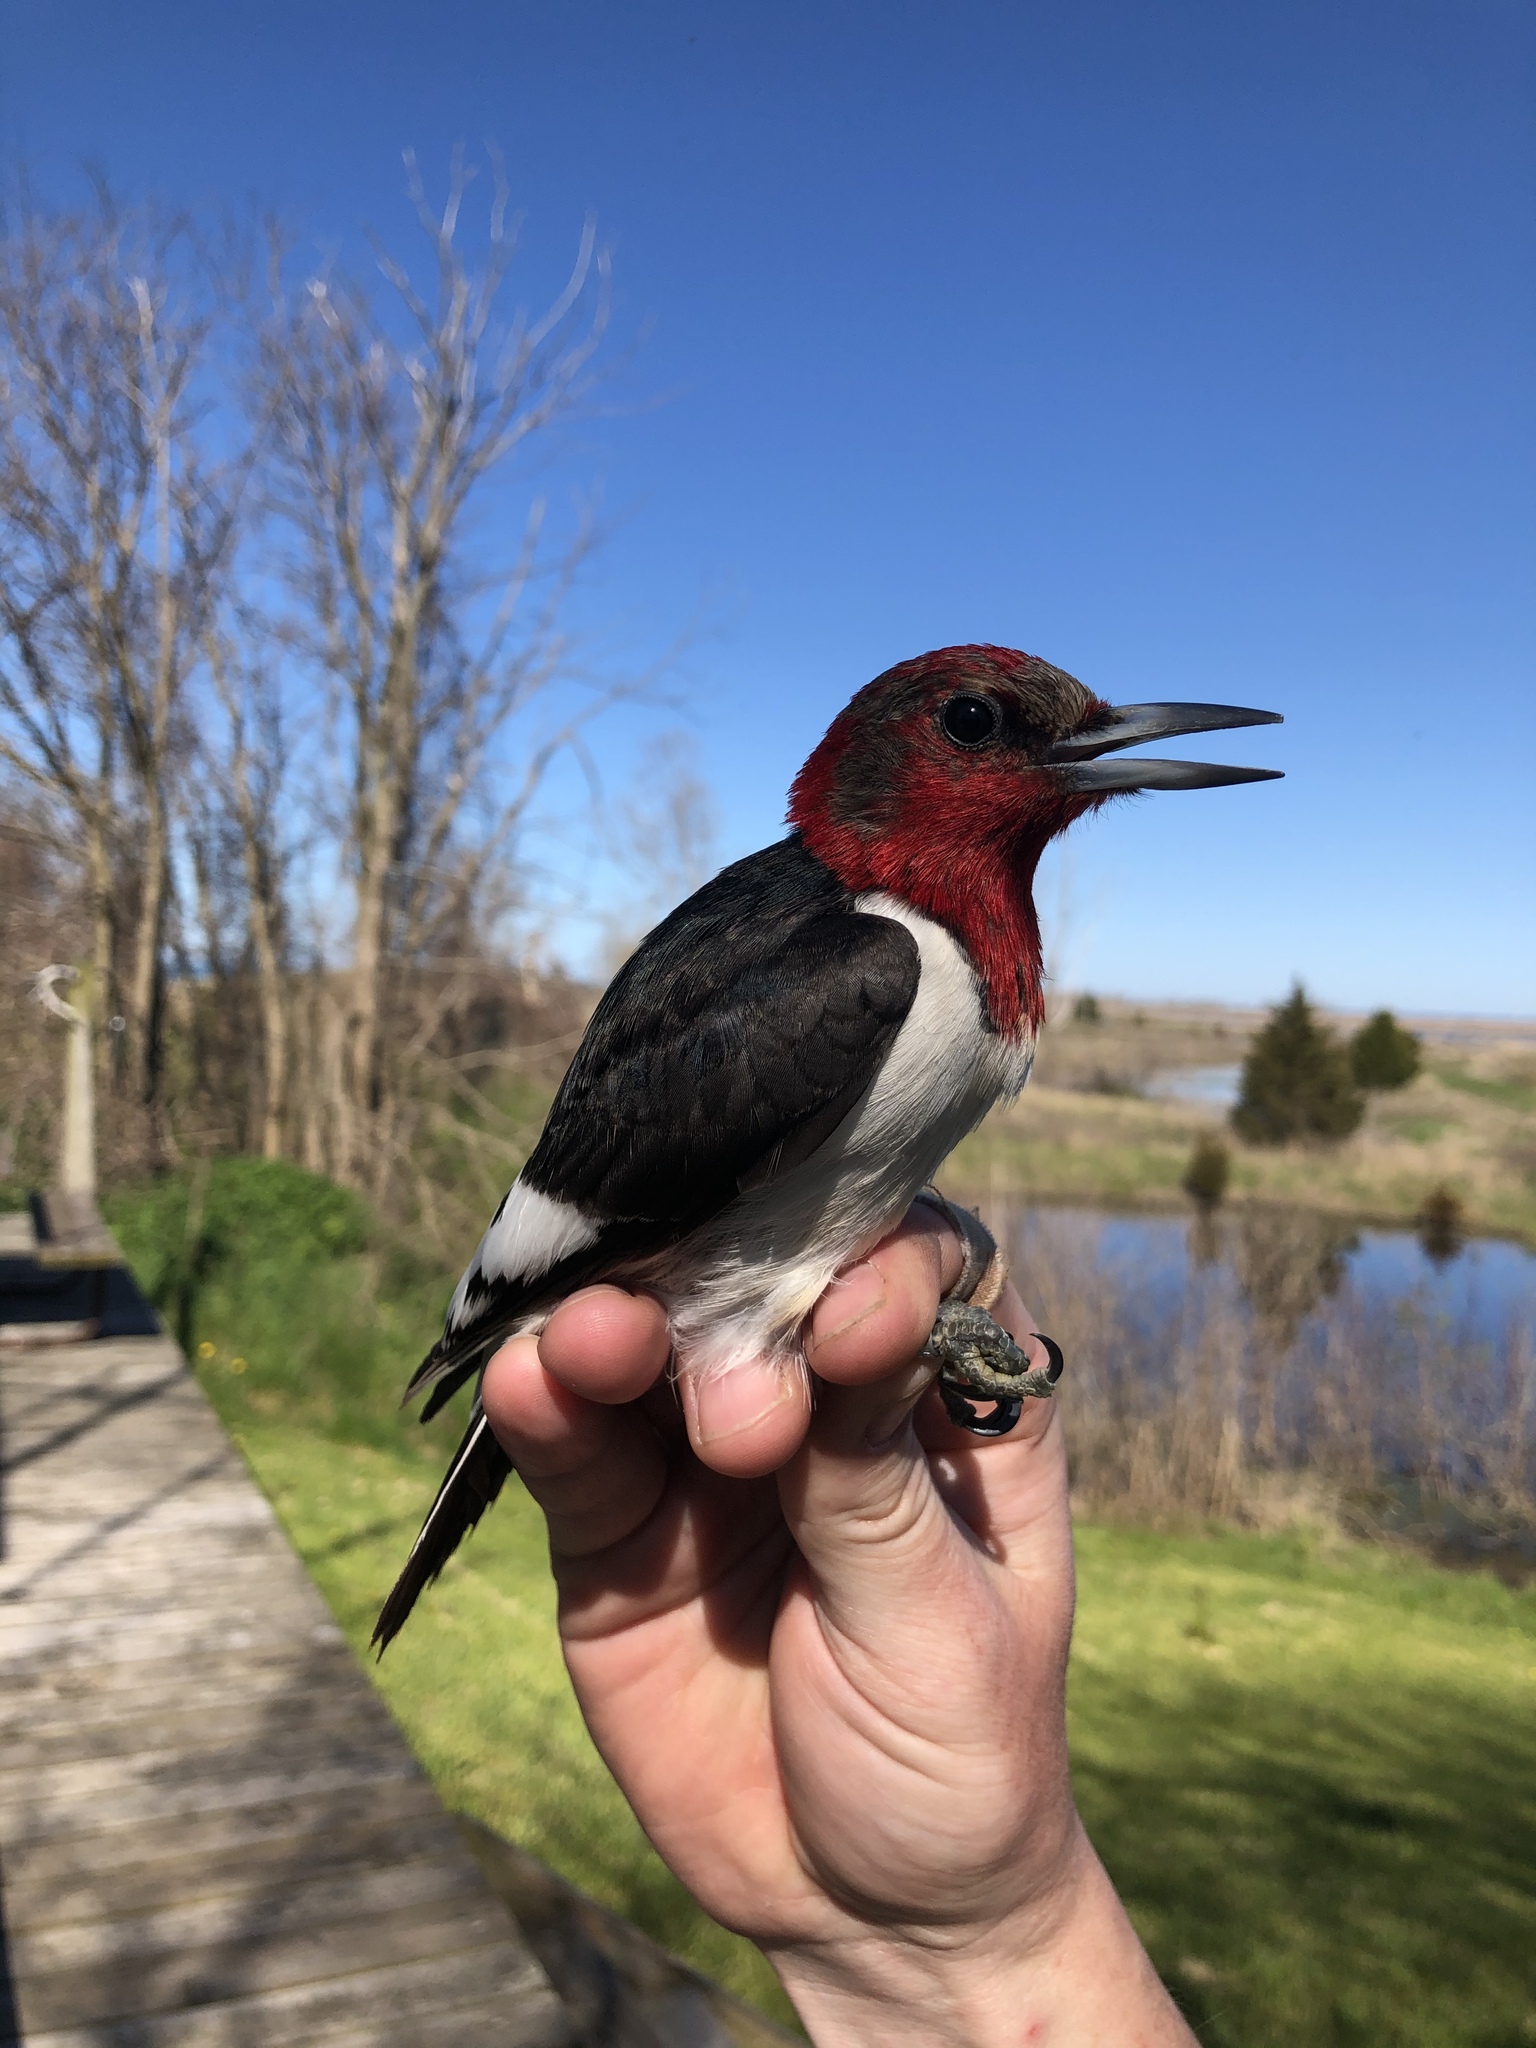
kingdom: Animalia
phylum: Chordata
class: Aves
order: Piciformes
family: Picidae
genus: Melanerpes
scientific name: Melanerpes erythrocephalus
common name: Red-headed woodpecker
